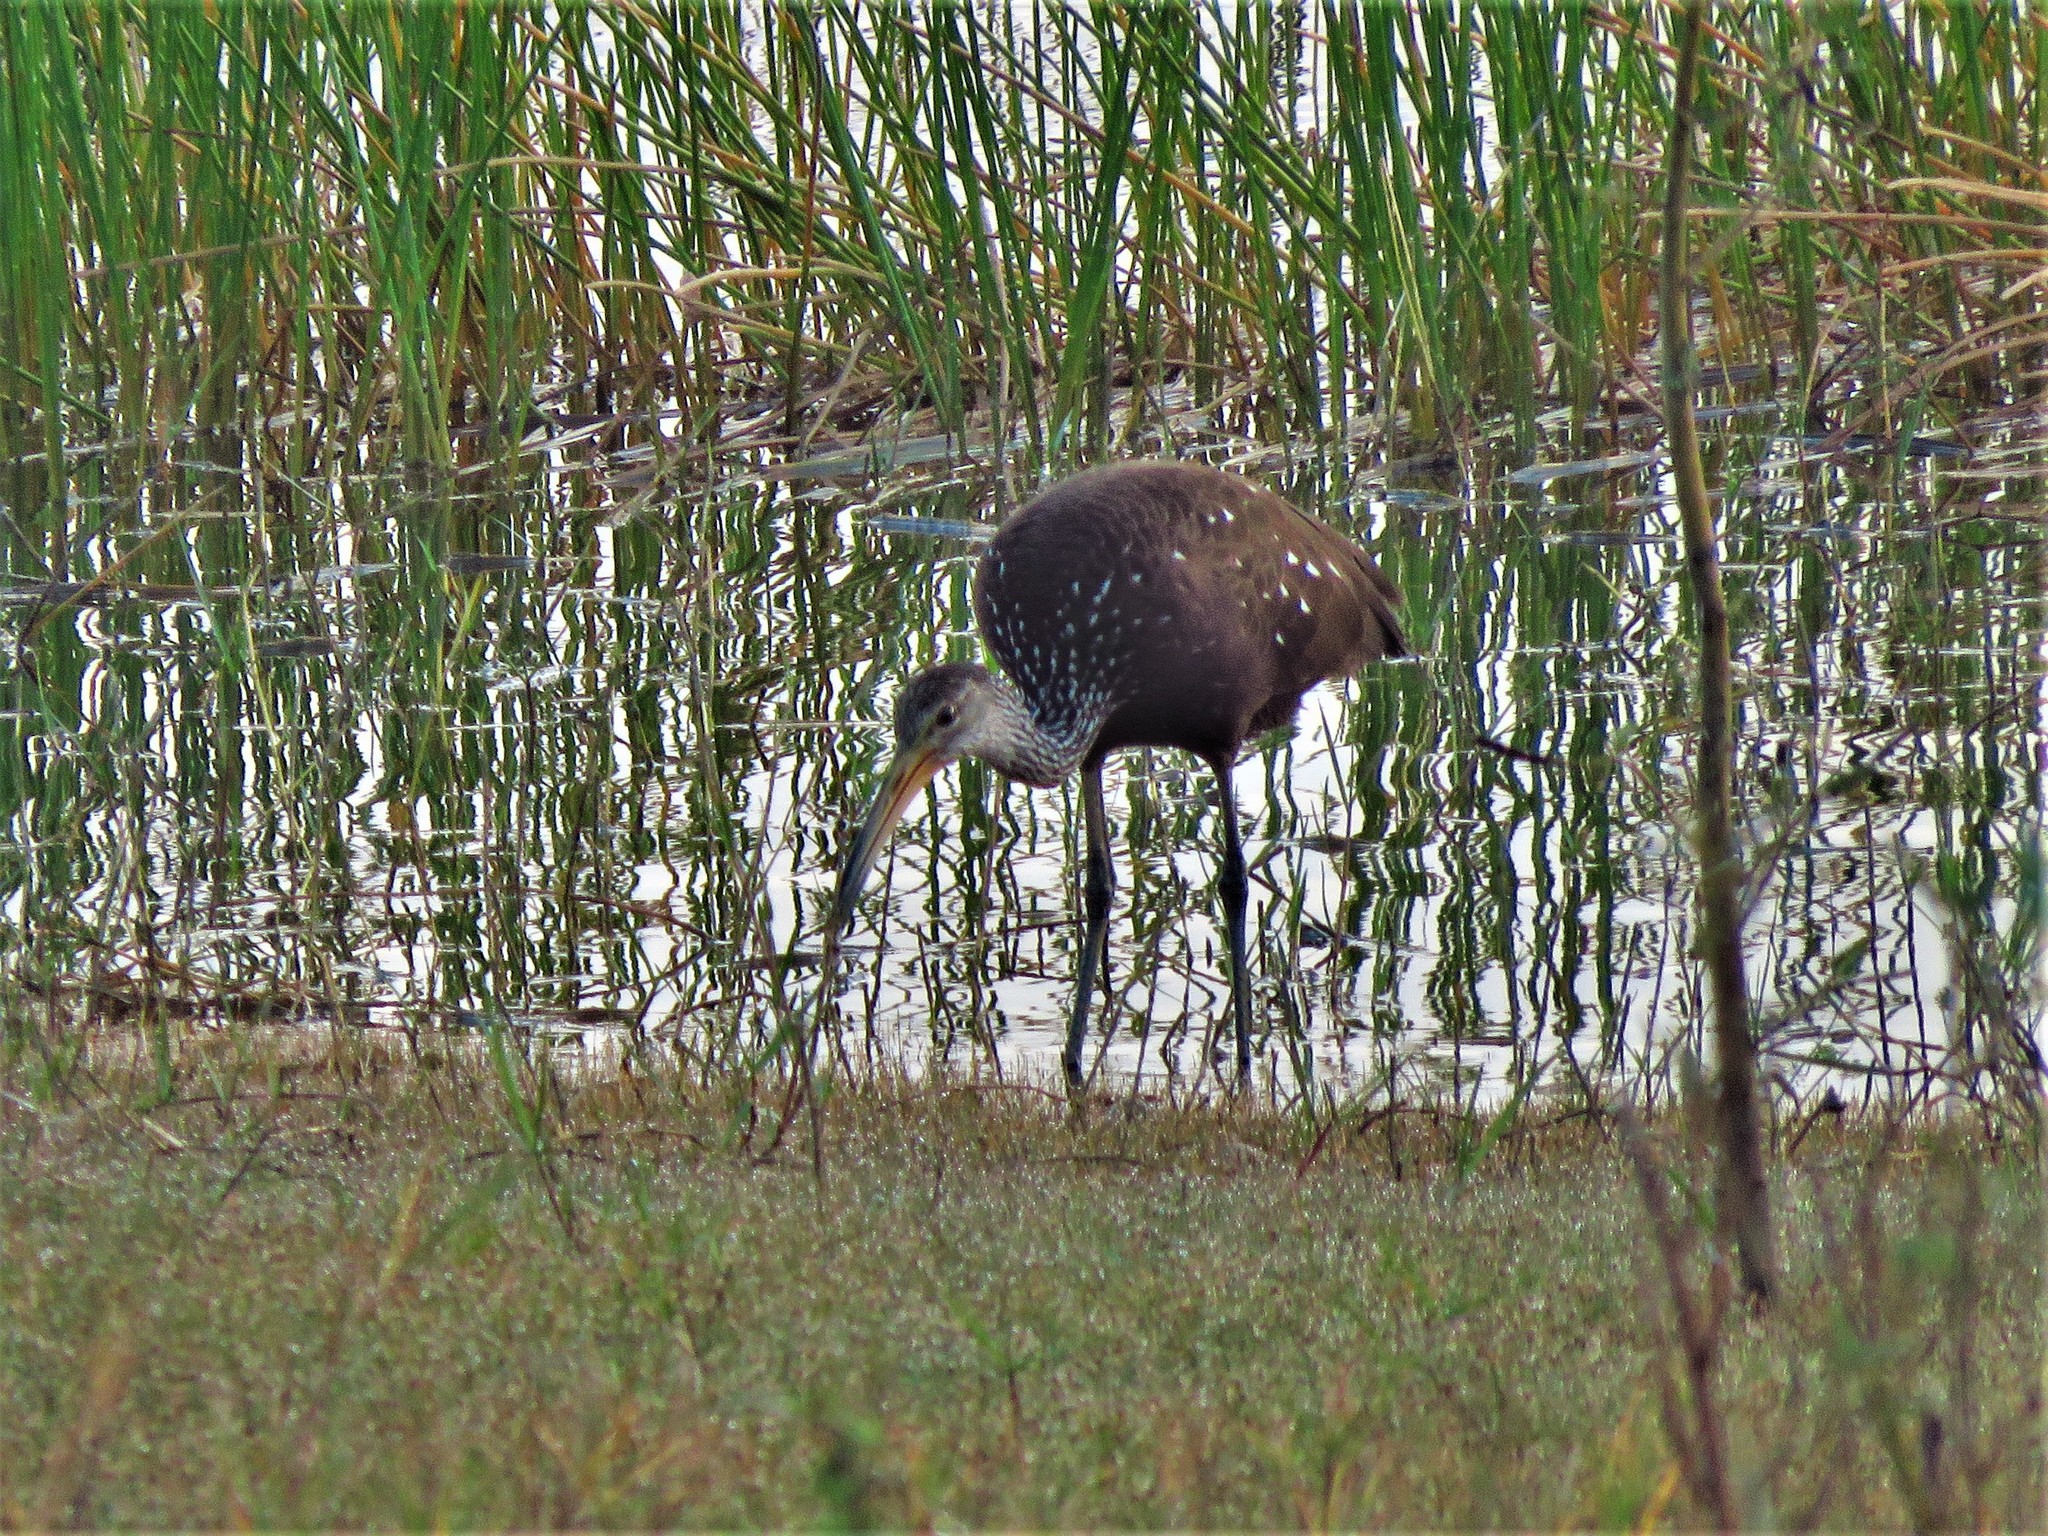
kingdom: Animalia
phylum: Chordata
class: Aves
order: Gruiformes
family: Aramidae
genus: Aramus
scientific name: Aramus guarauna
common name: Limpkin
